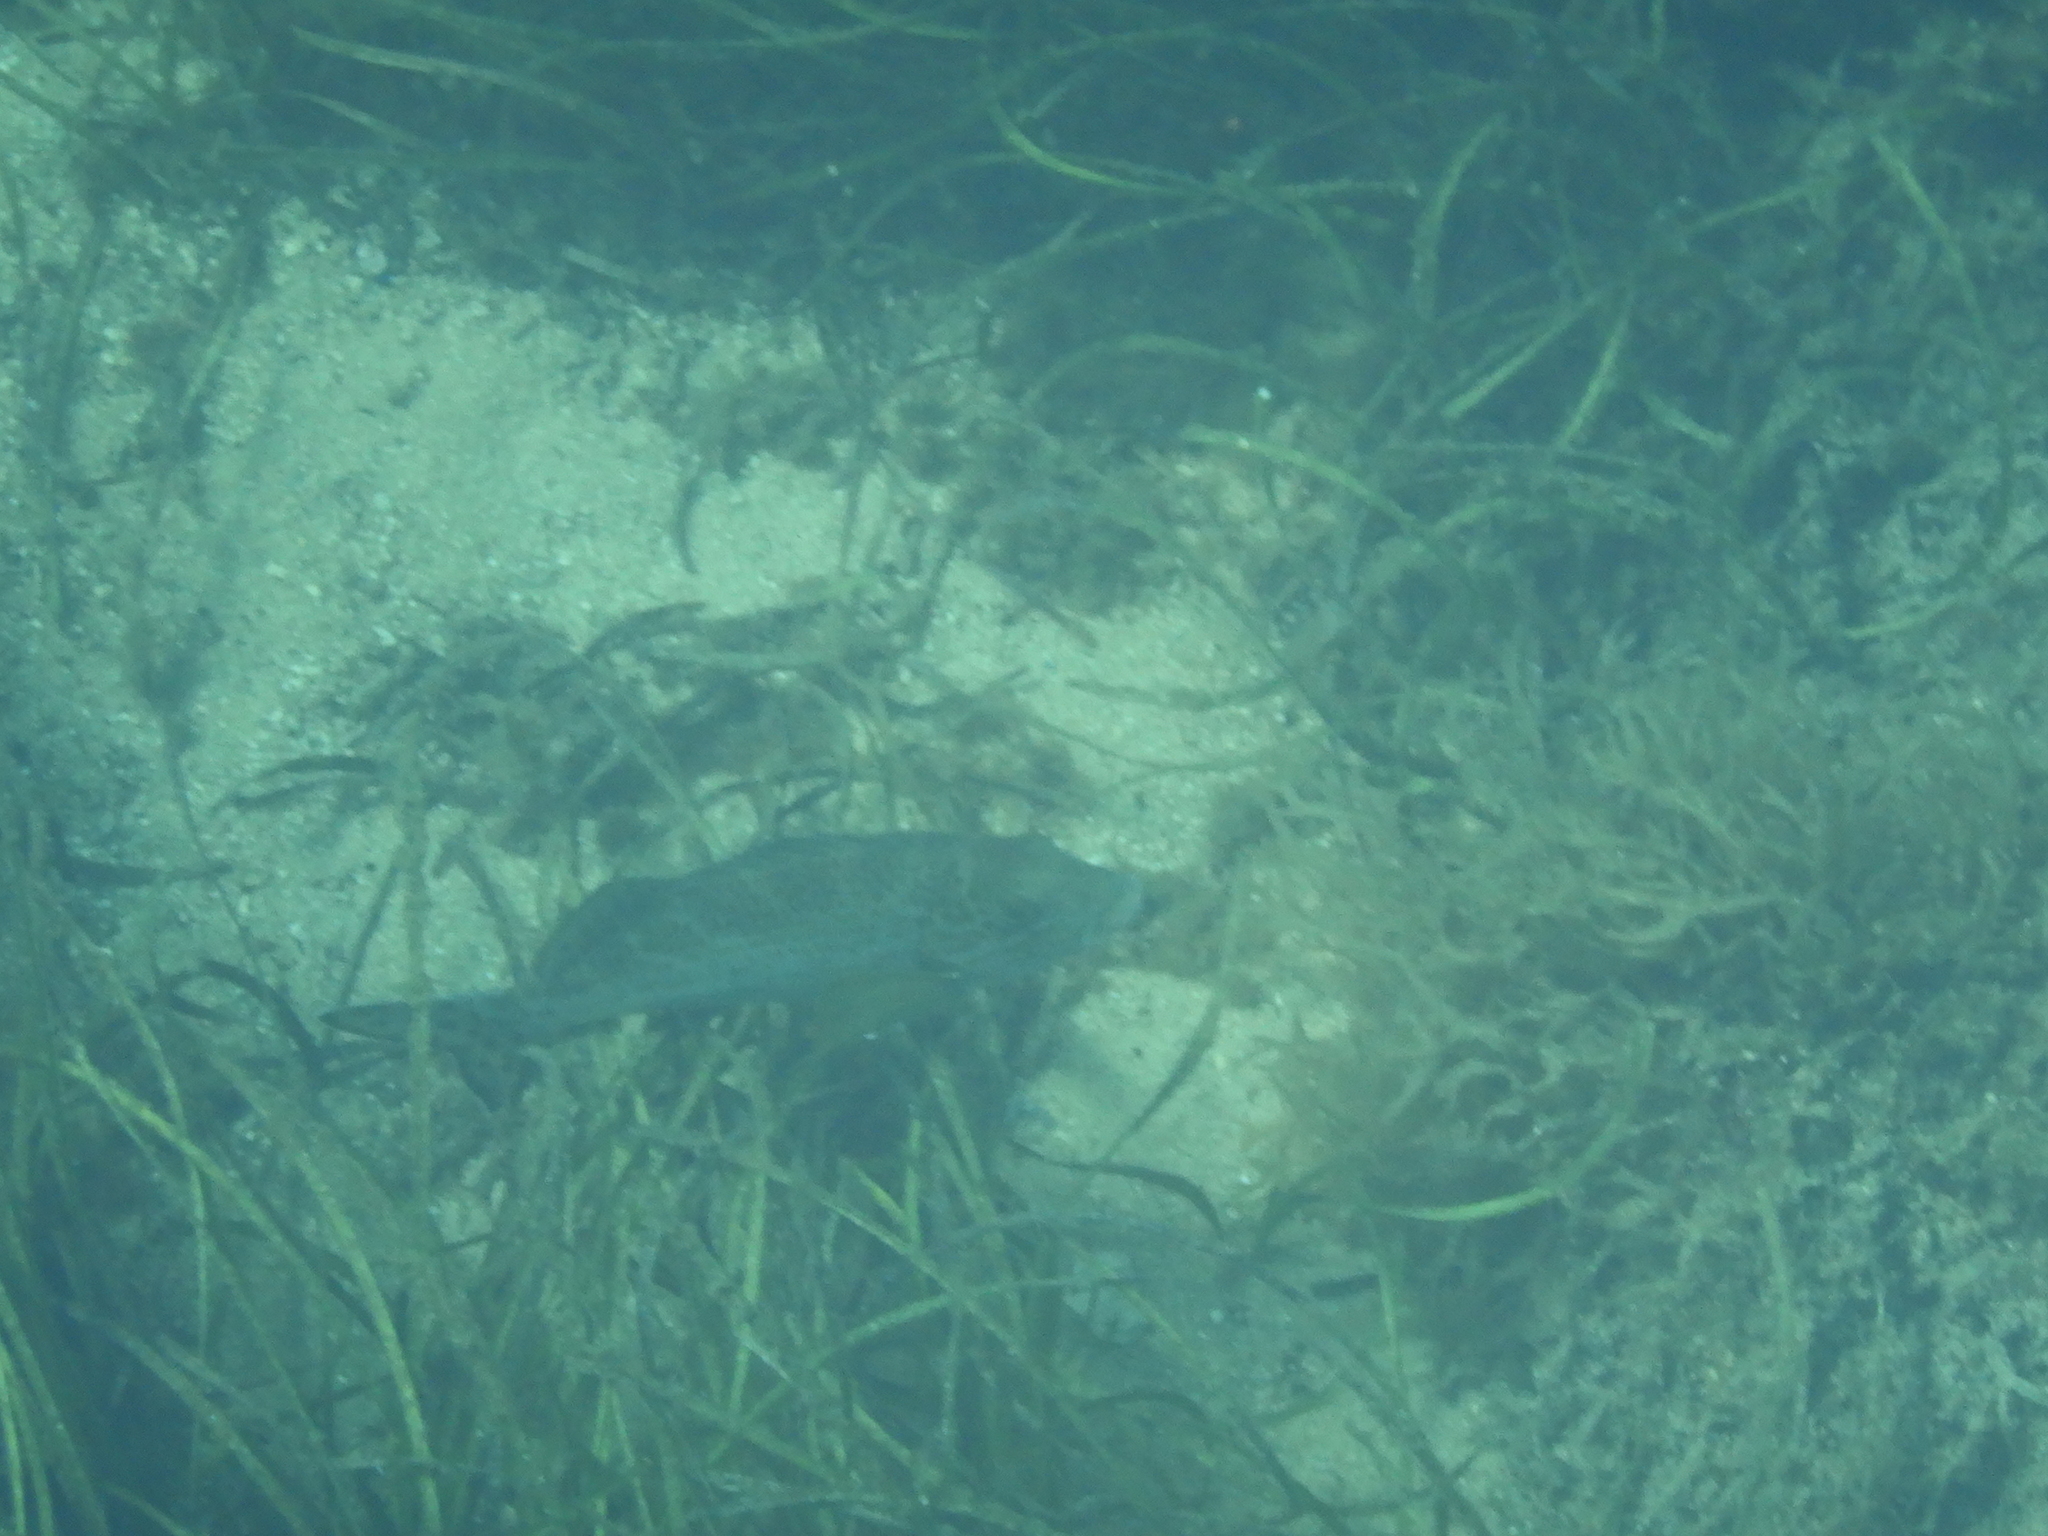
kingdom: Animalia
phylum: Chordata
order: Perciformes
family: Cheilodactylidae
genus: Dactylophora
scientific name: Dactylophora nigricans
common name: Dusky morwong
